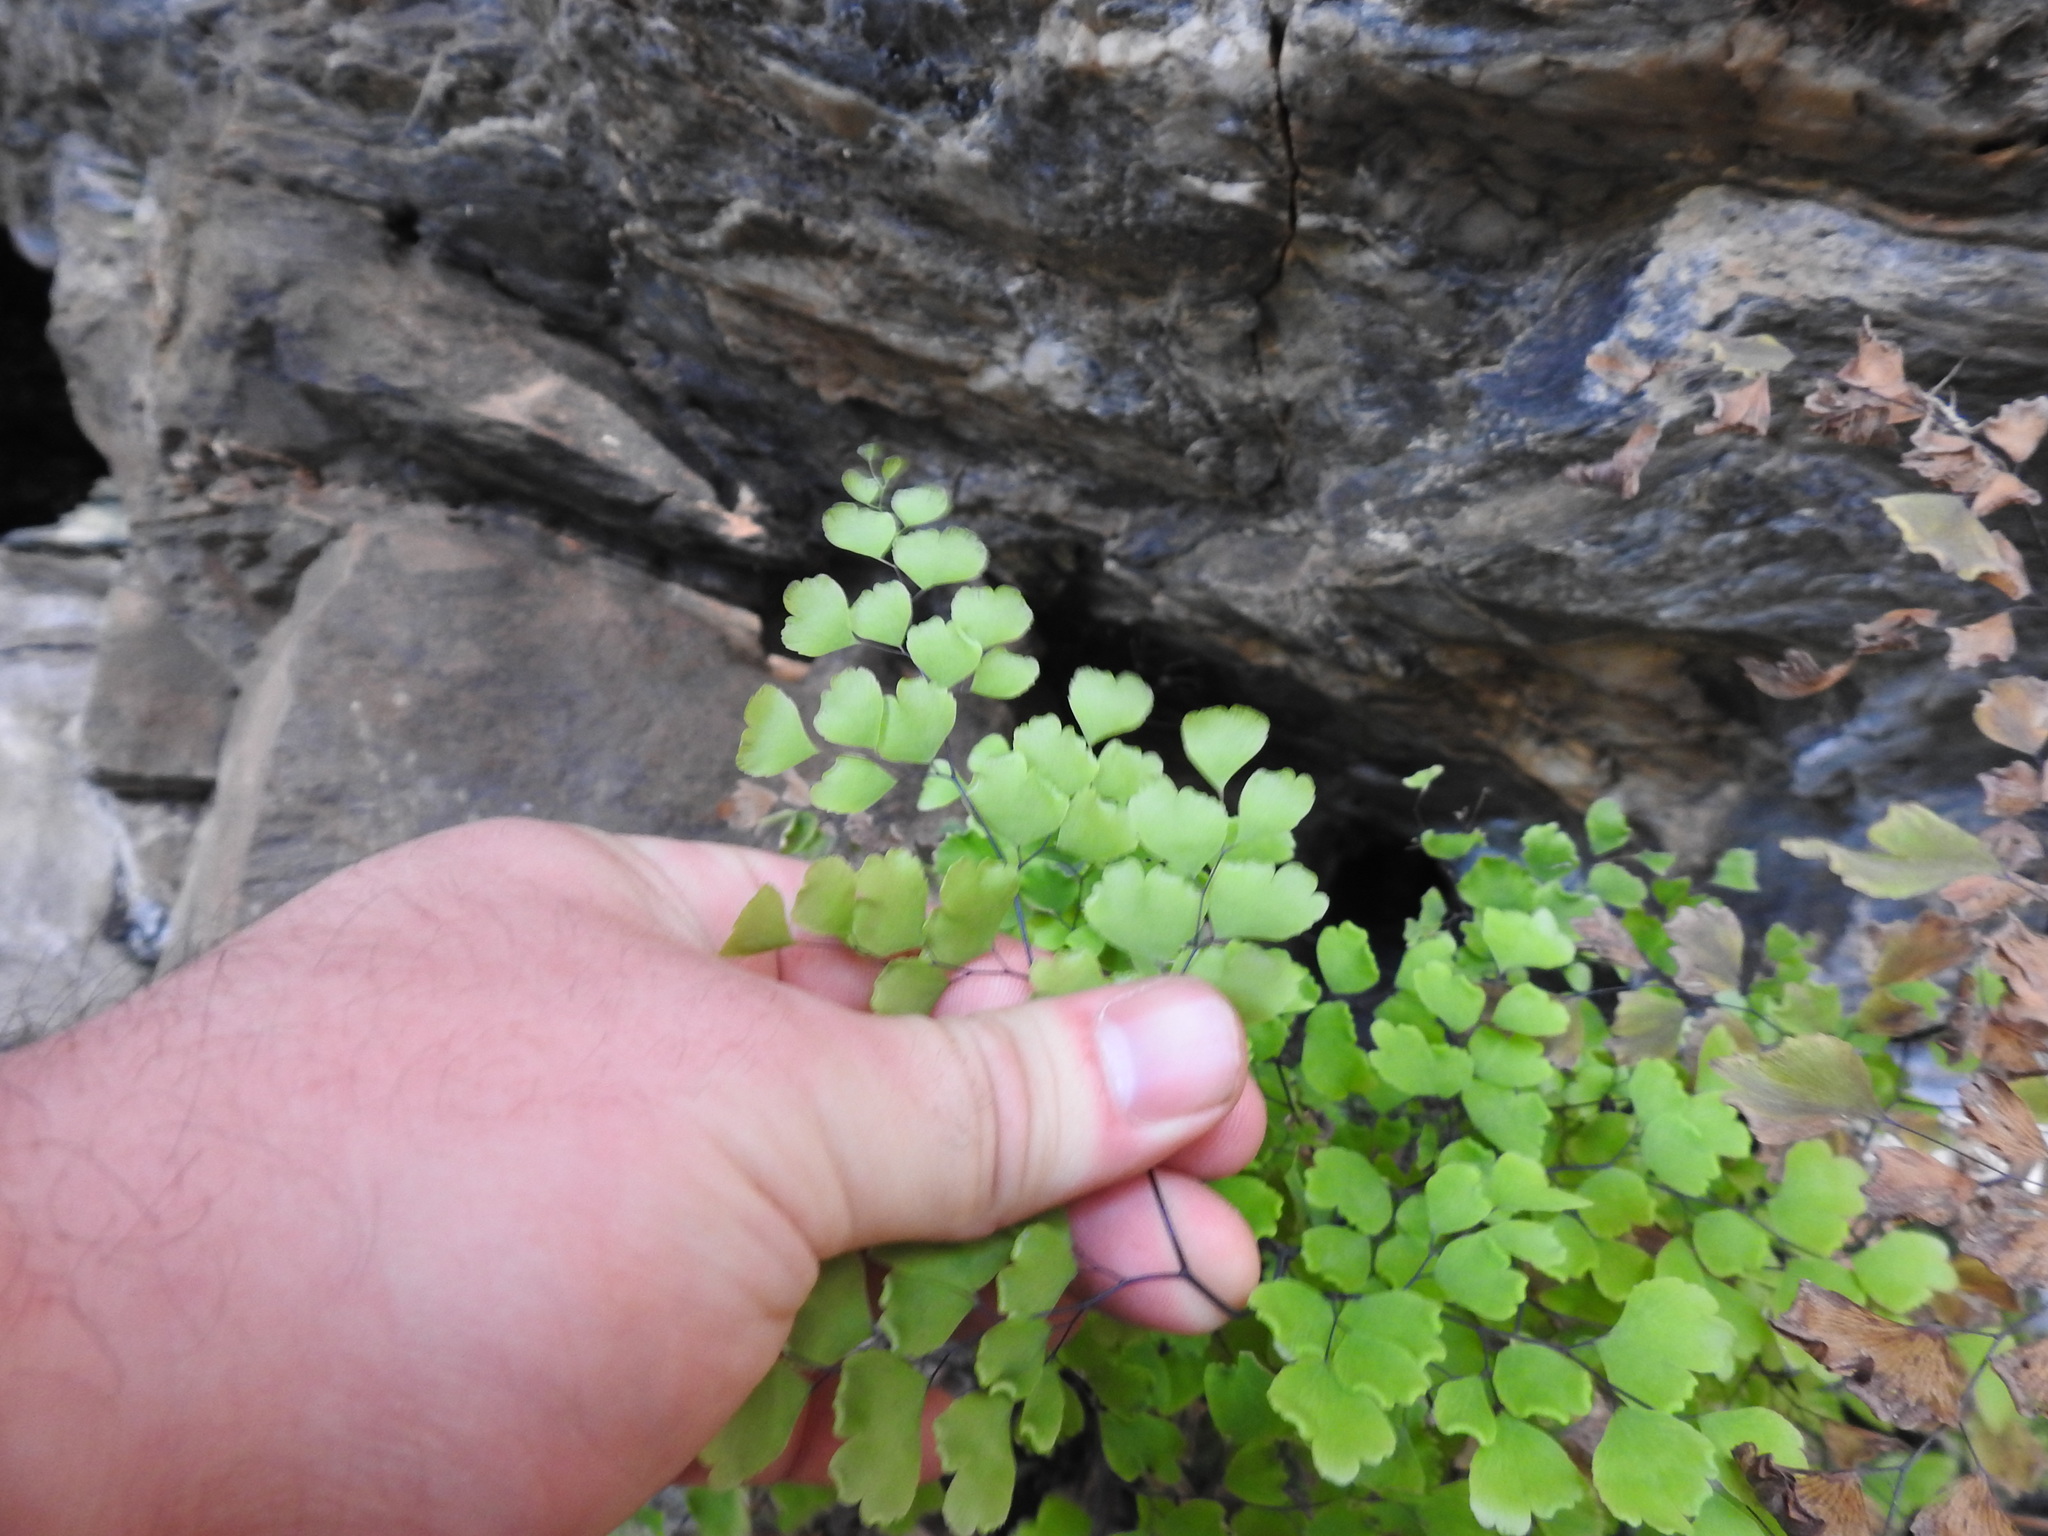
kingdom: Plantae
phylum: Tracheophyta
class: Polypodiopsida
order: Polypodiales
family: Pteridaceae
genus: Adiantum
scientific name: Adiantum capillus-veneris
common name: Maidenhair fern
